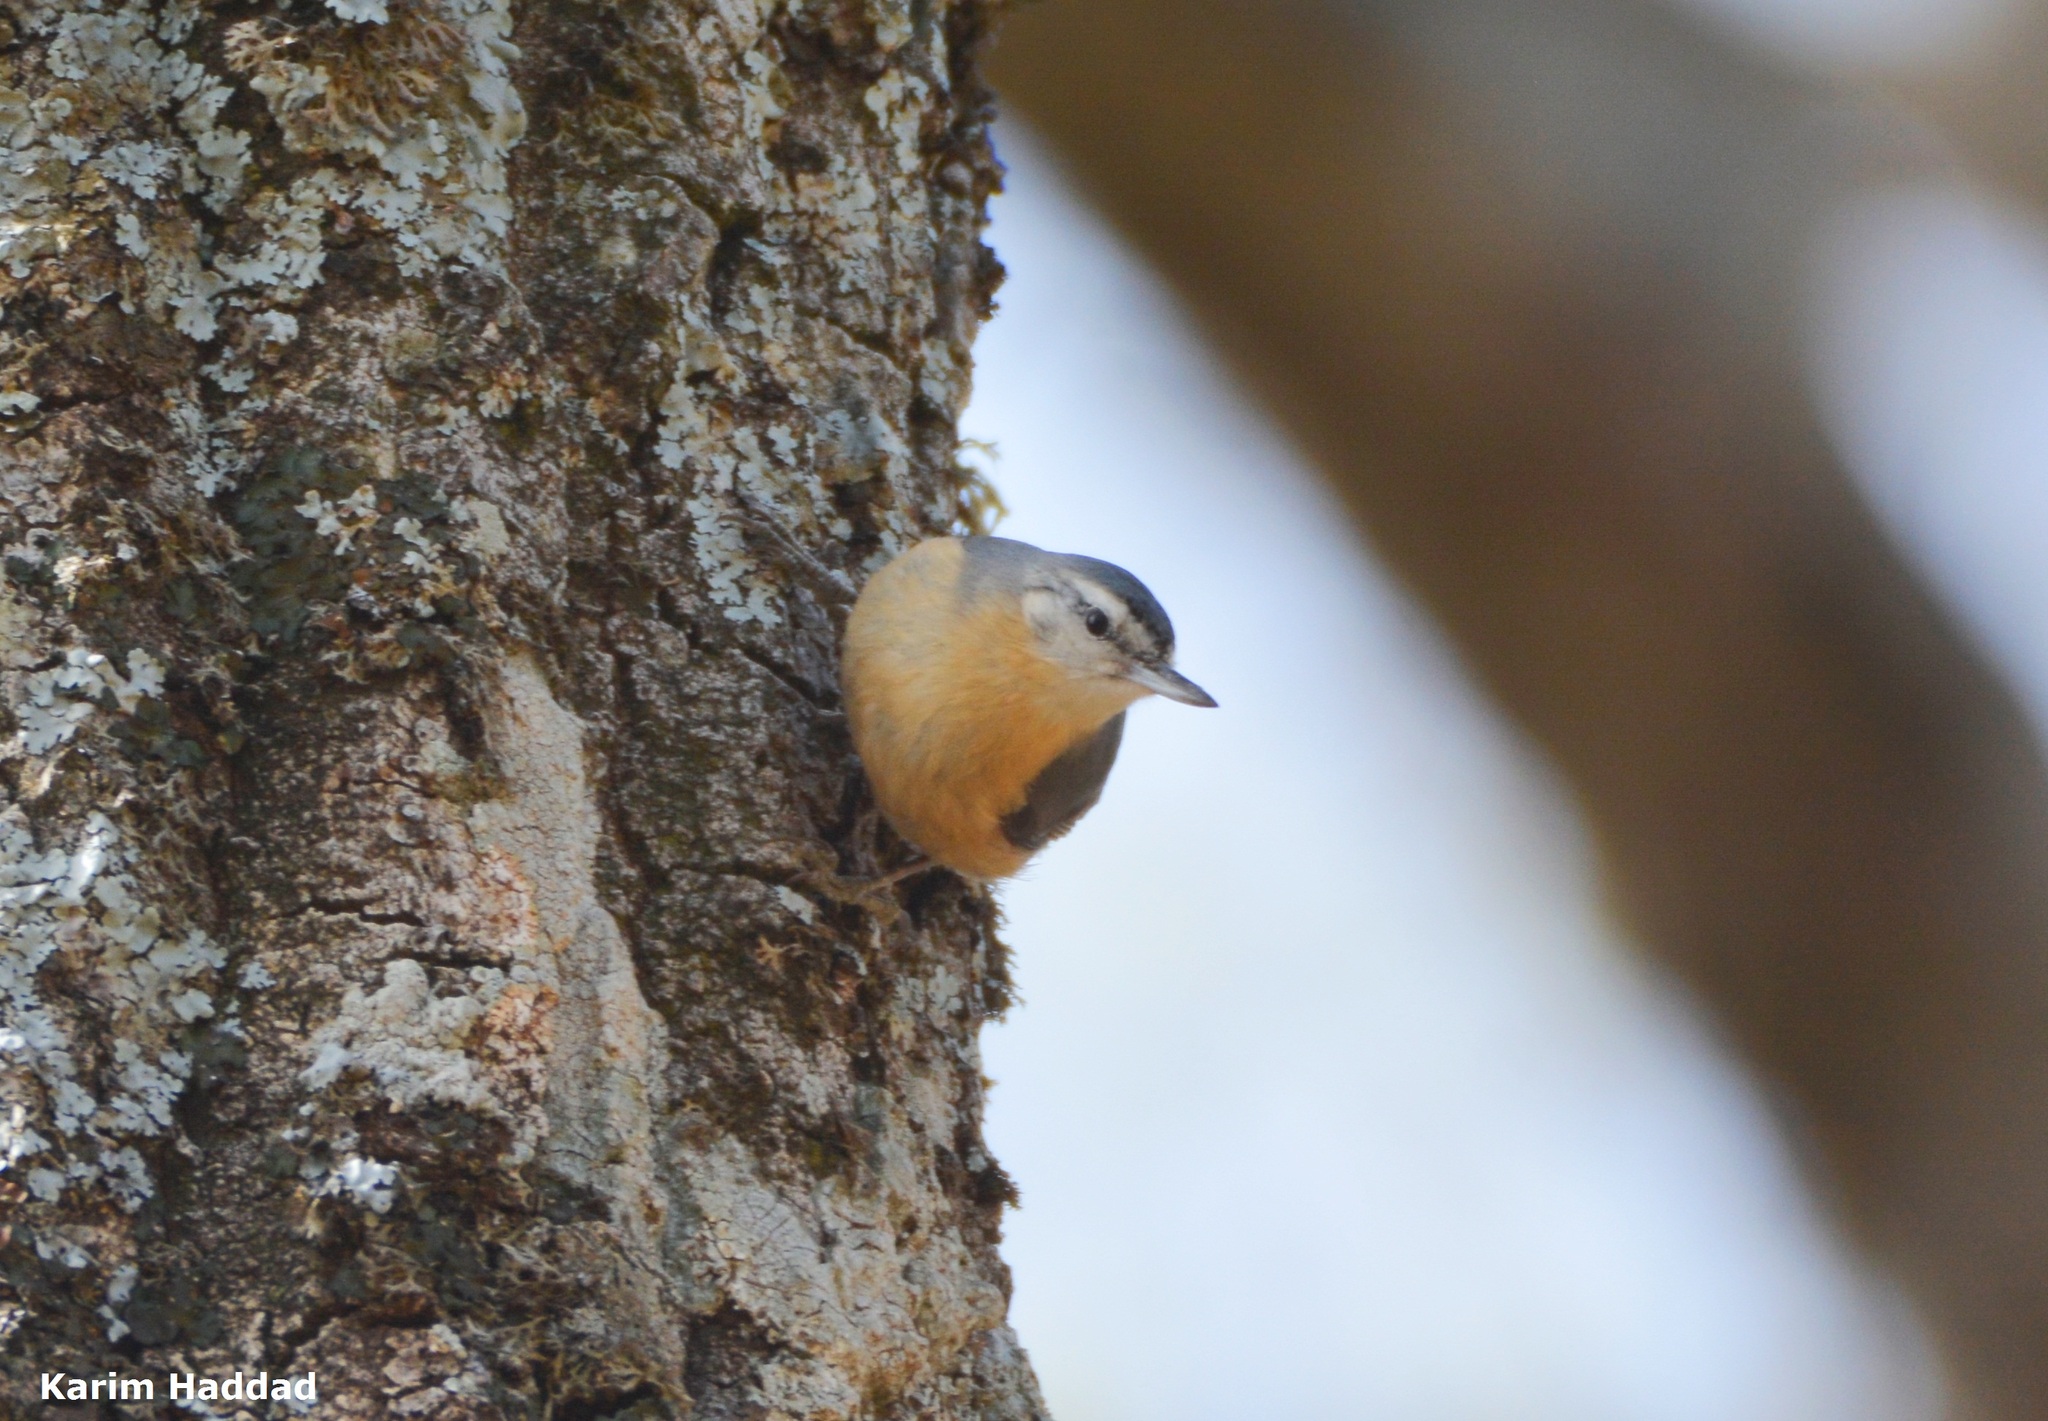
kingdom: Animalia
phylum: Chordata
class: Aves
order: Passeriformes
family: Sittidae
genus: Sitta
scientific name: Sitta ledanti
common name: Algerian nuthatch
